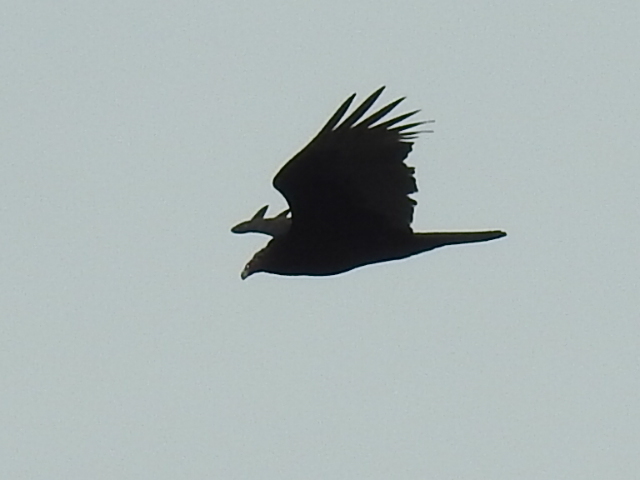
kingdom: Animalia
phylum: Chordata
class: Aves
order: Accipitriformes
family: Cathartidae
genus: Cathartes
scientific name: Cathartes aura
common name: Turkey vulture
